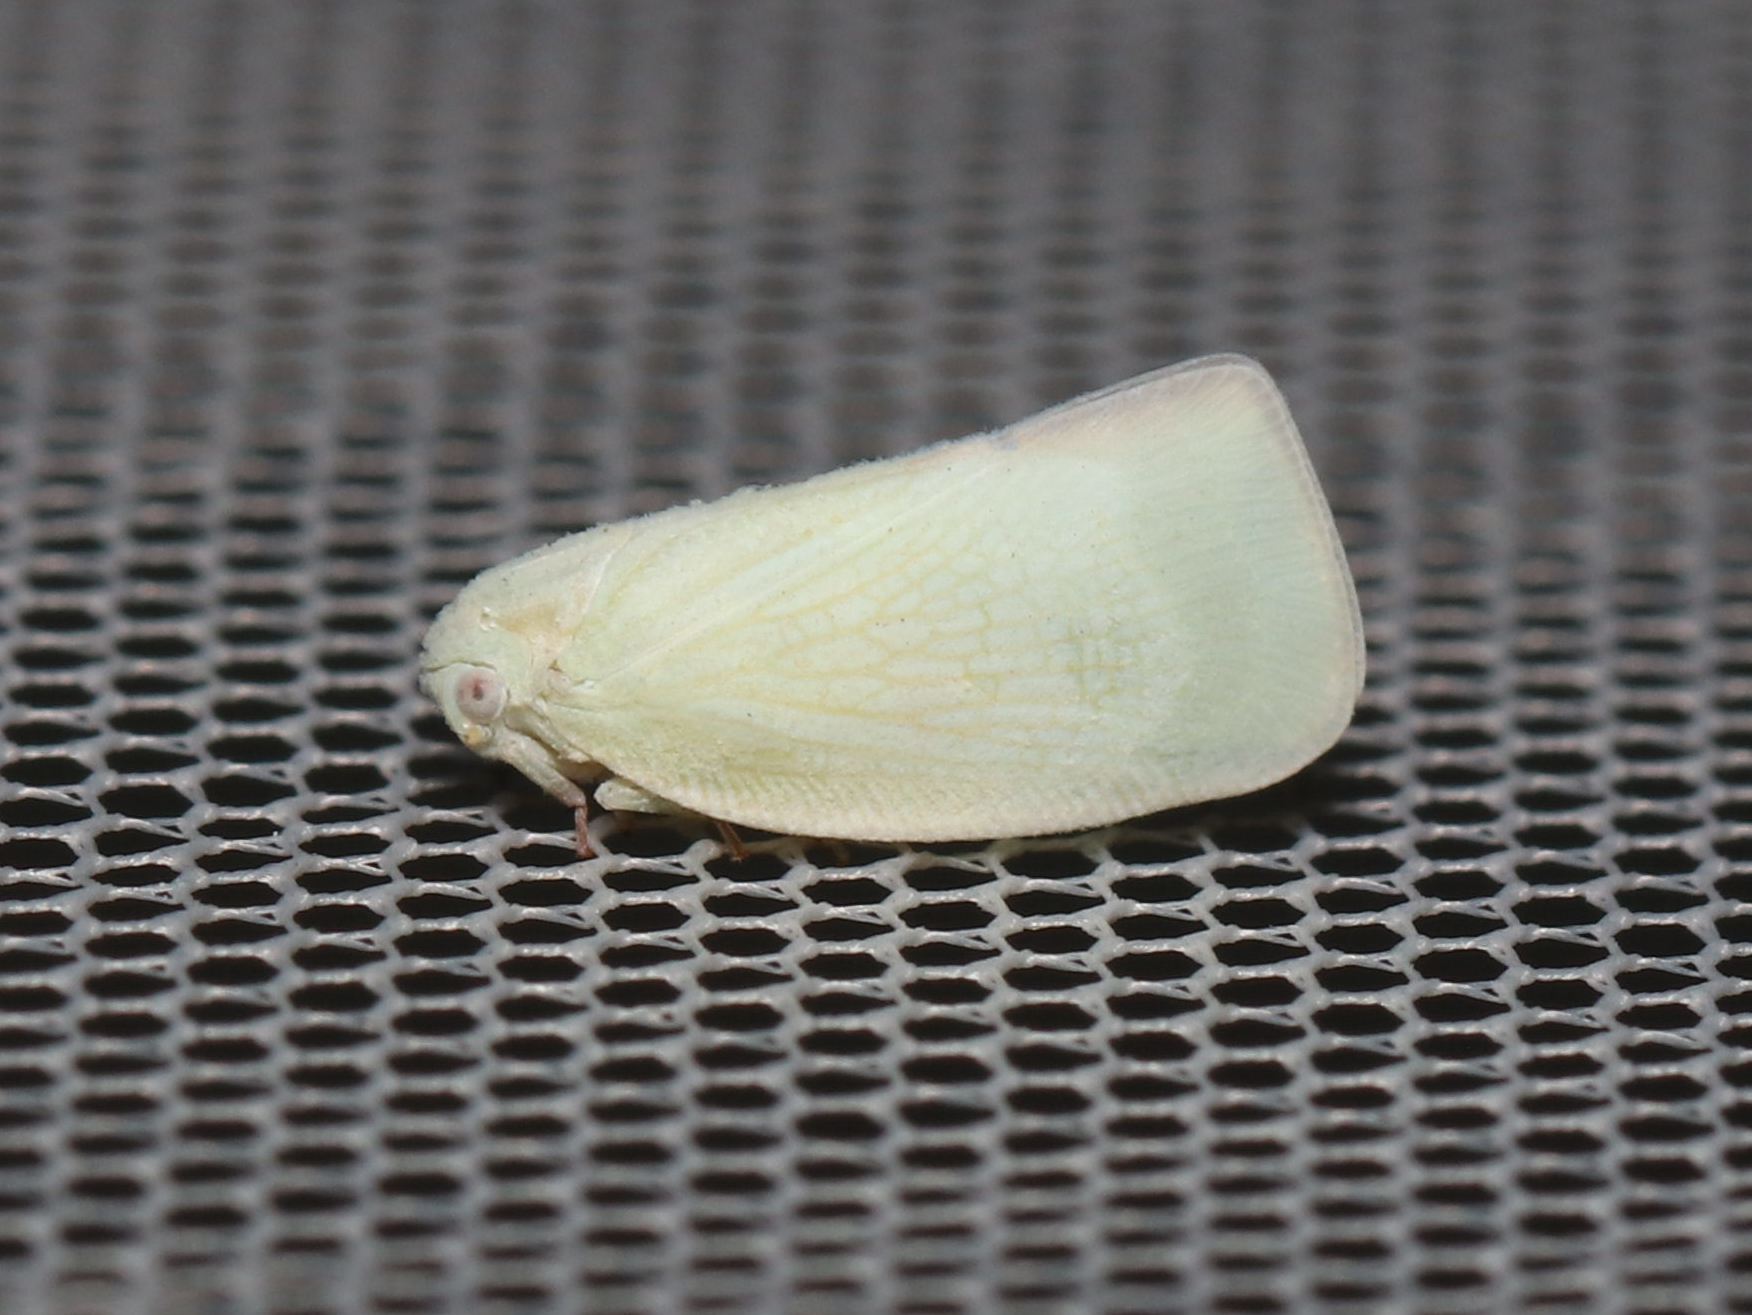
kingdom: Animalia
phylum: Arthropoda
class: Insecta
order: Hemiptera
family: Flatidae
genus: Flatormenis
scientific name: Flatormenis proxima
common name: Northern flatid planthopper
